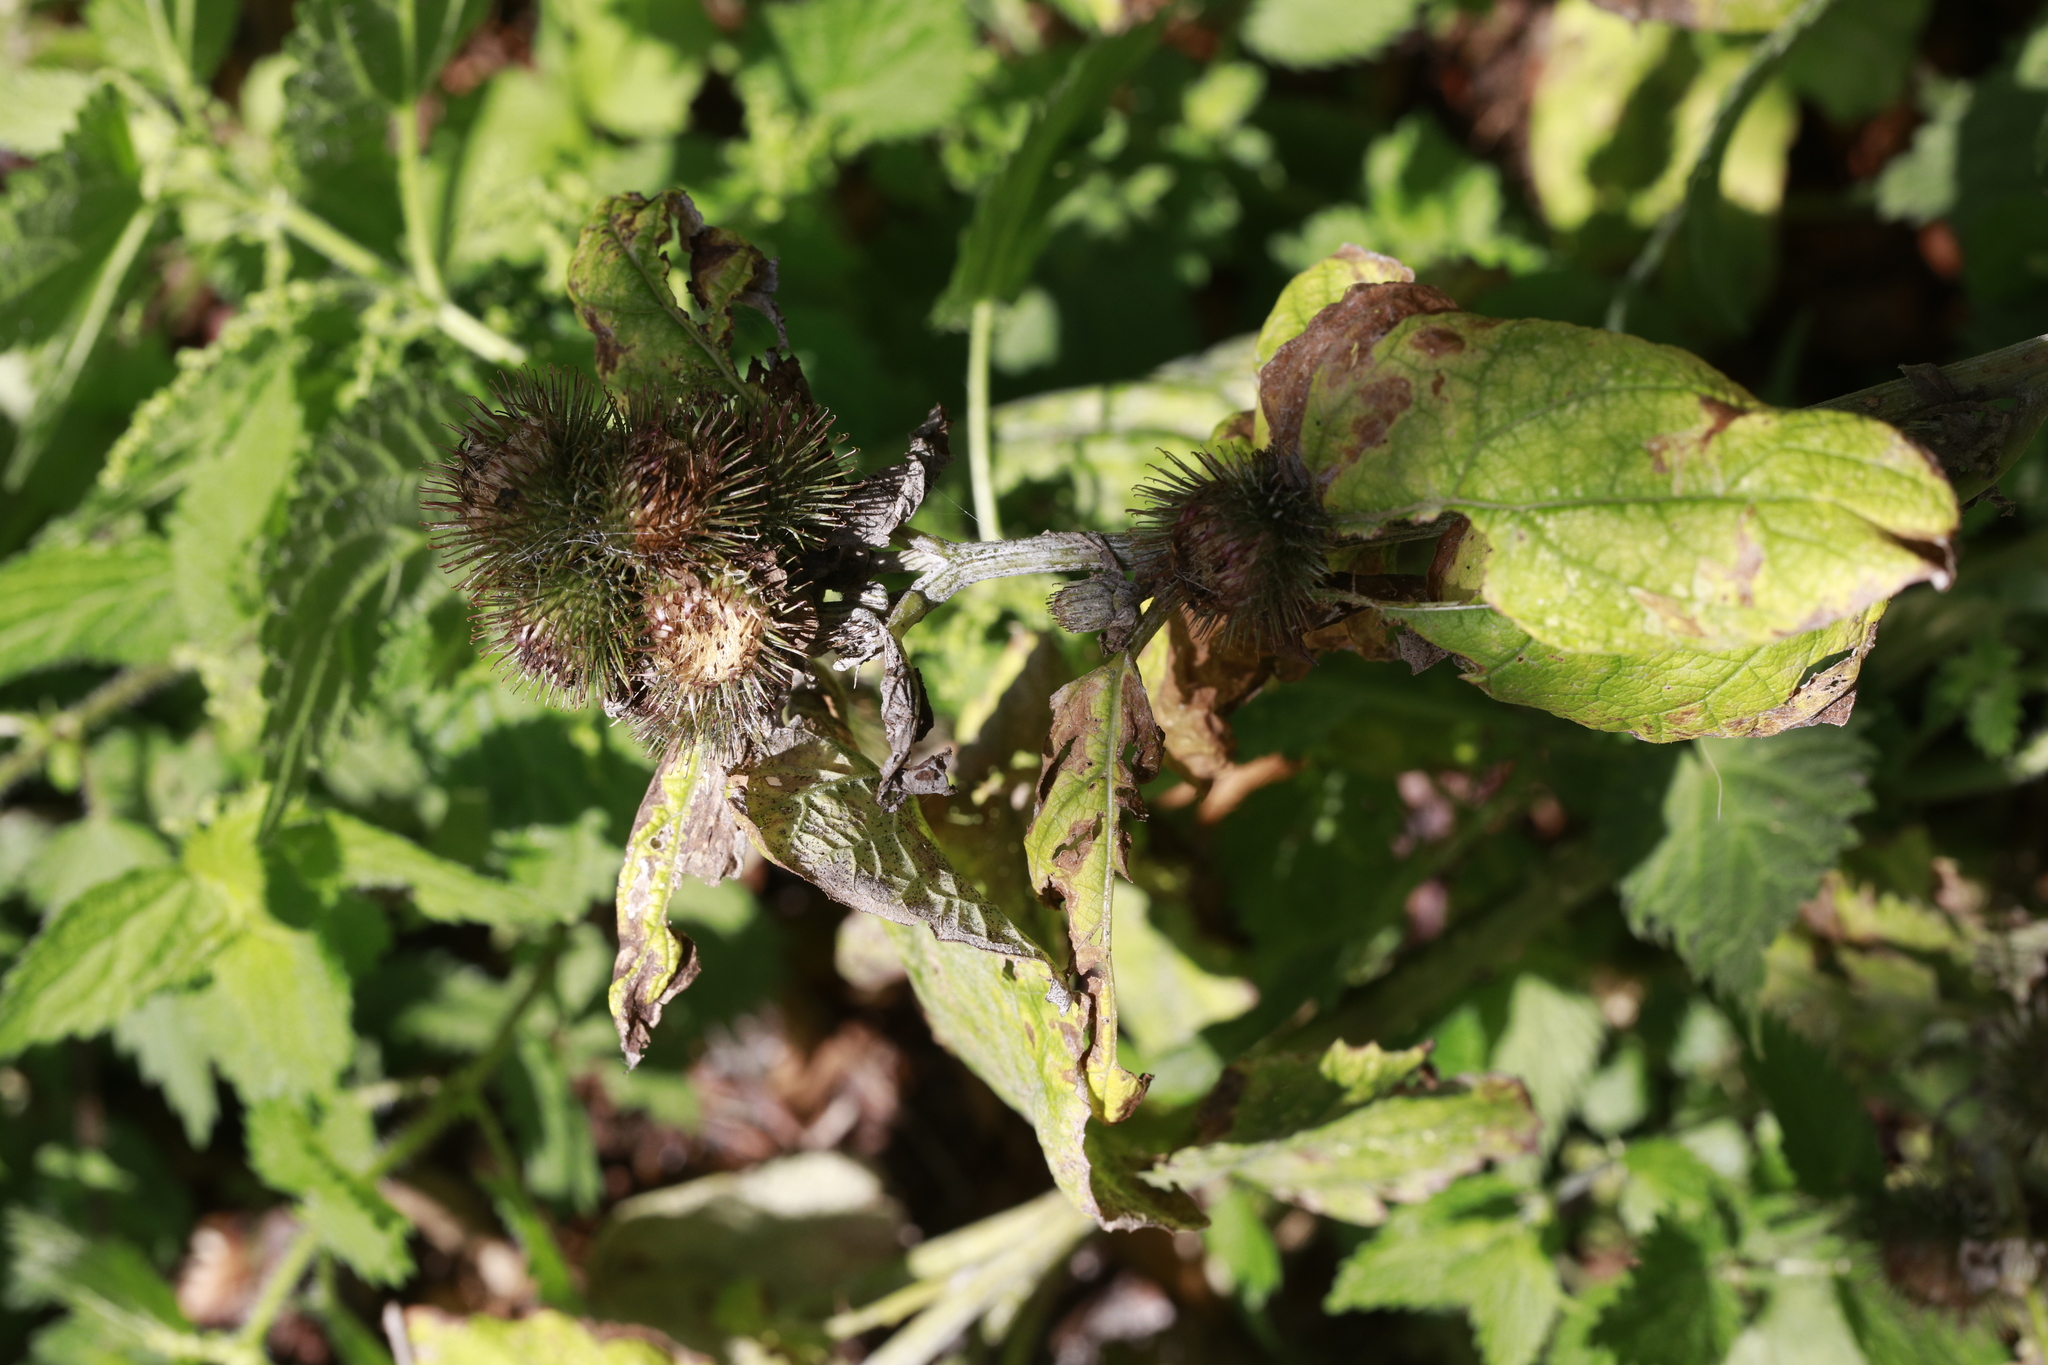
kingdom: Plantae
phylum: Tracheophyta
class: Magnoliopsida
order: Asterales
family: Asteraceae
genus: Arctium
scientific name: Arctium minus
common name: Lesser burdock
